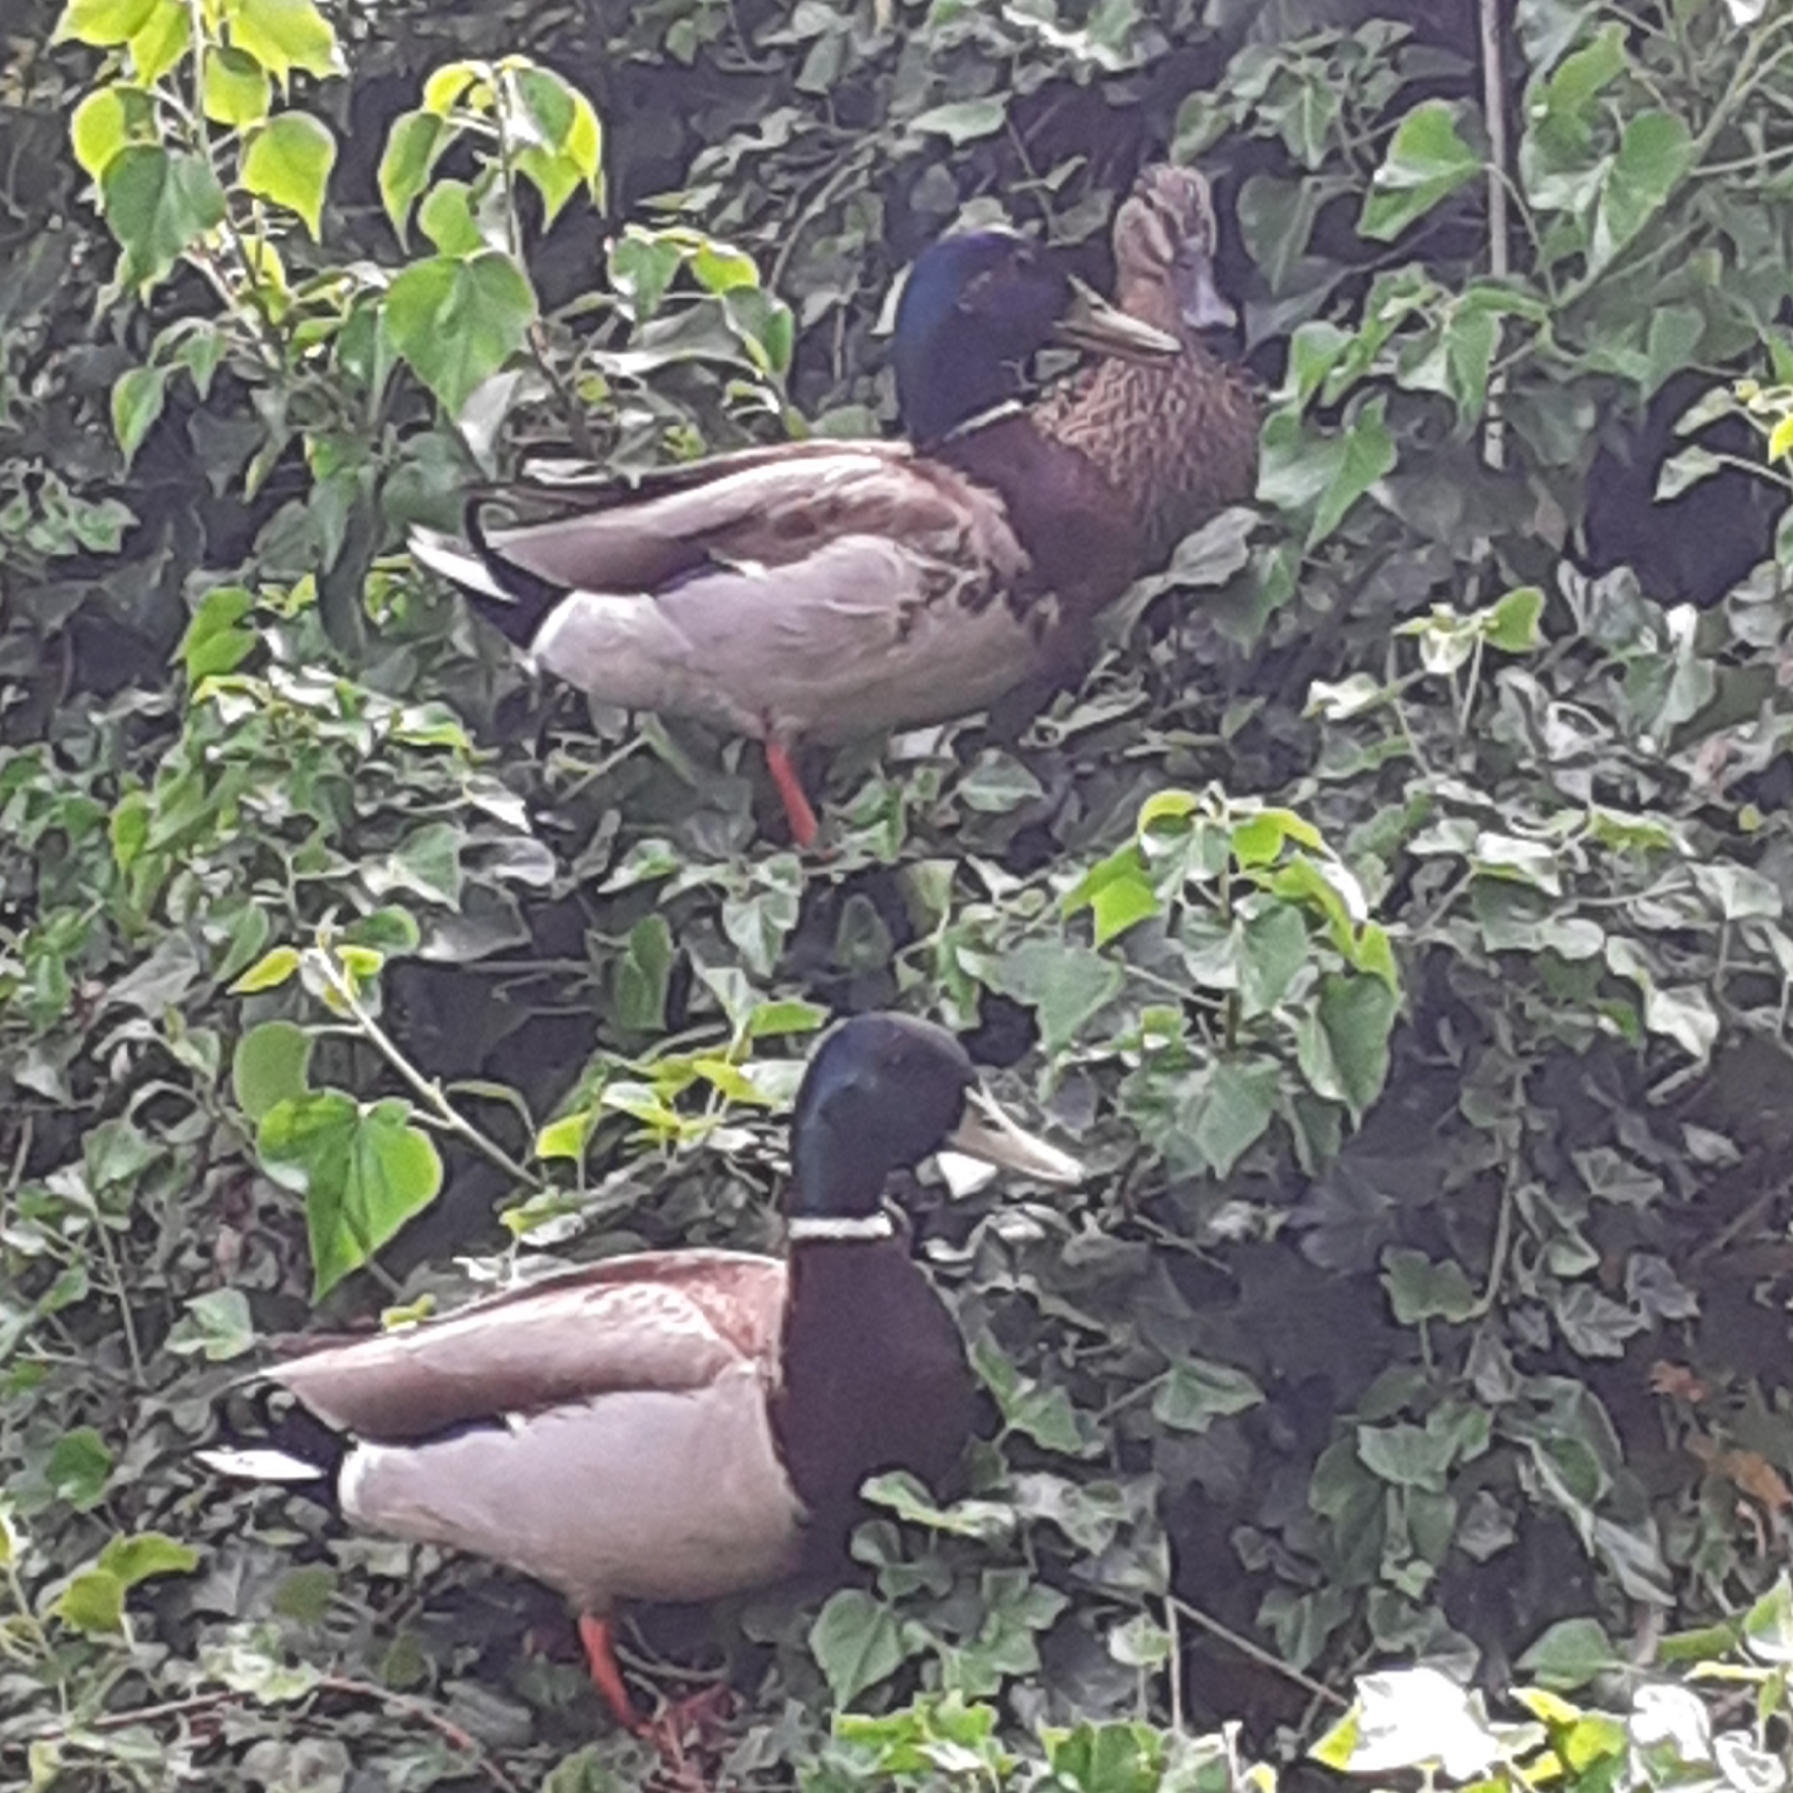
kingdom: Animalia
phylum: Chordata
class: Aves
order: Anseriformes
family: Anatidae
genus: Anas
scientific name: Anas platyrhynchos
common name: Mallard
